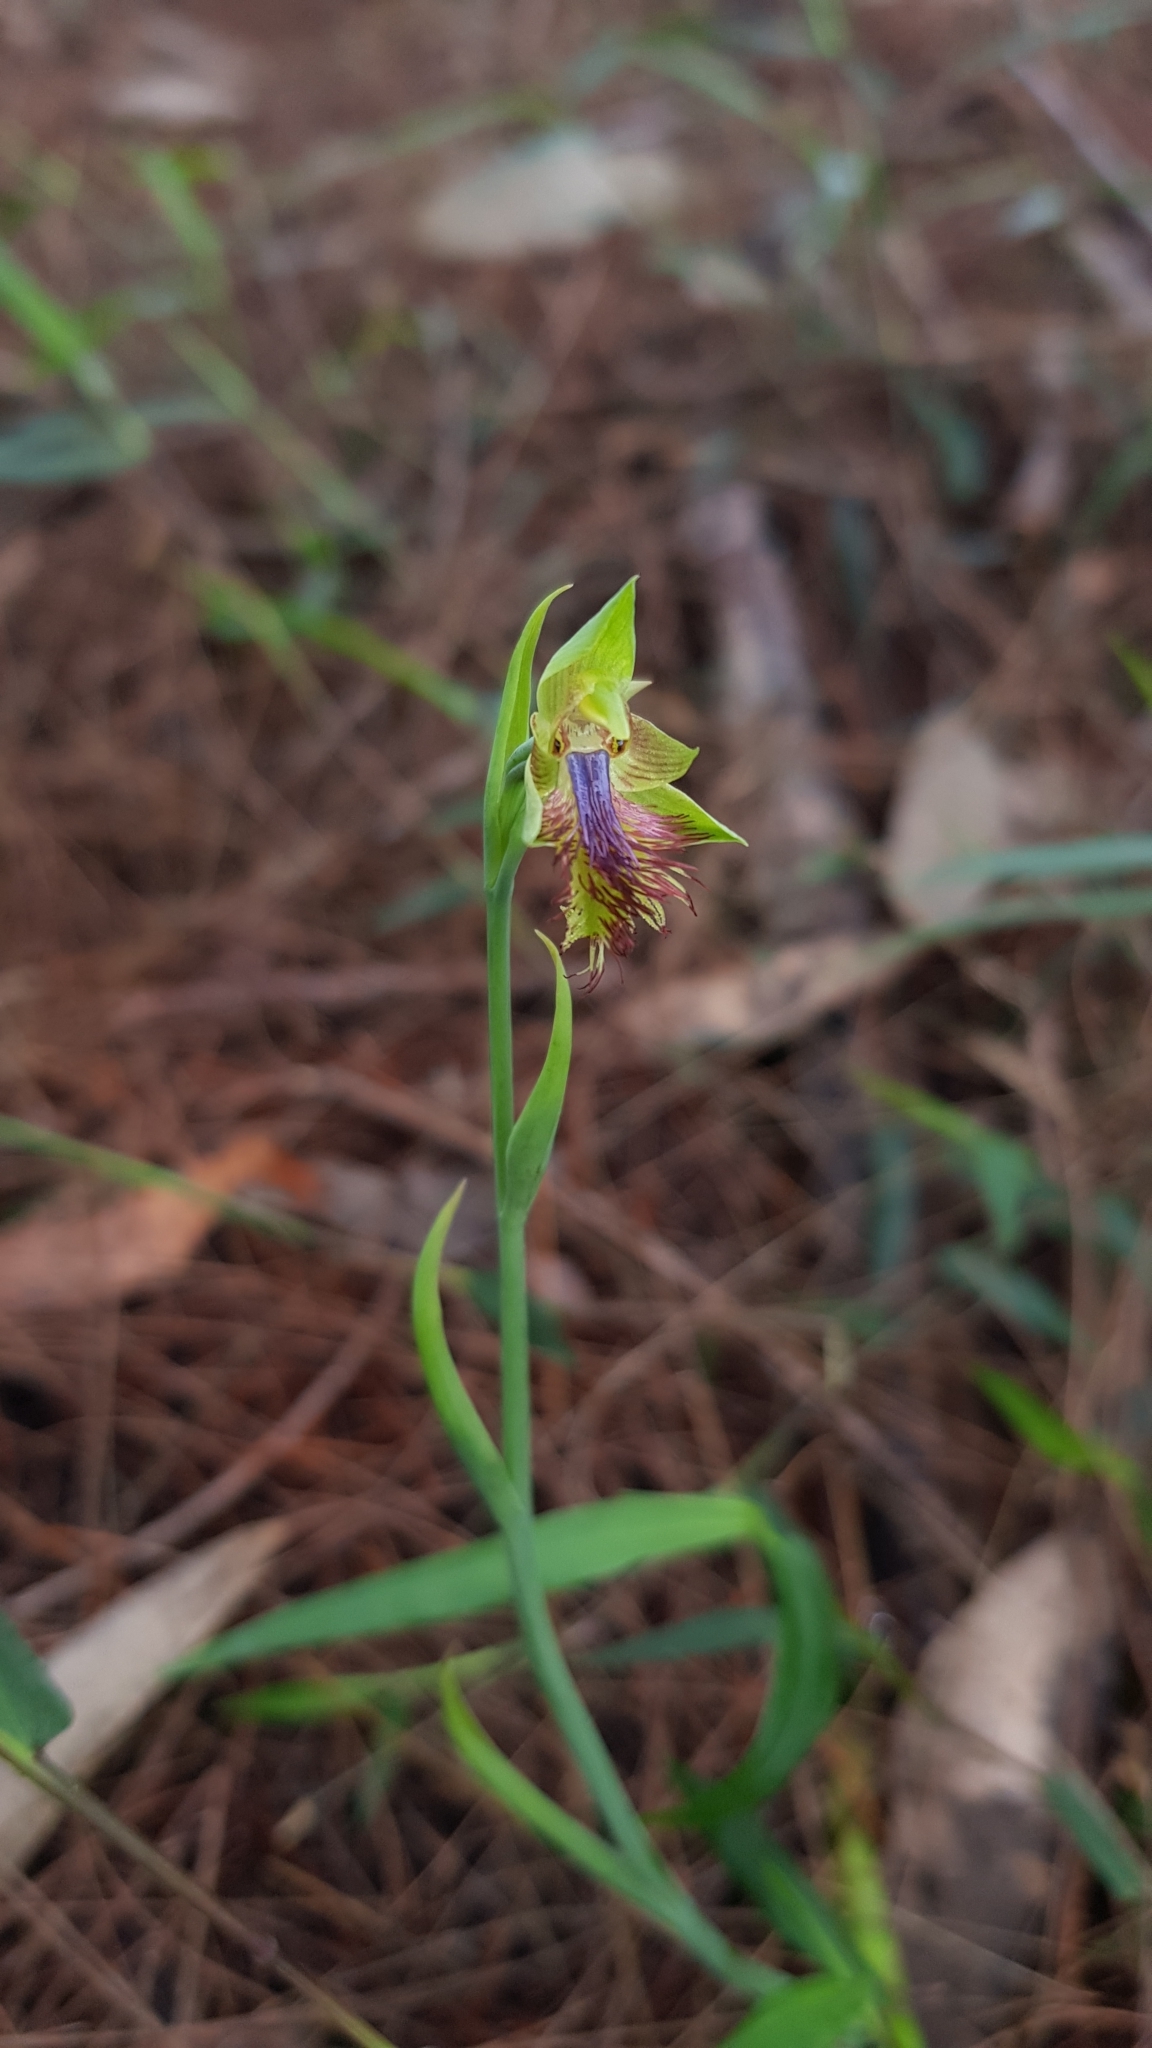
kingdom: Plantae
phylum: Tracheophyta
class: Liliopsida
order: Asparagales
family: Orchidaceae
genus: Calochilus
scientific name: Calochilus campestris
